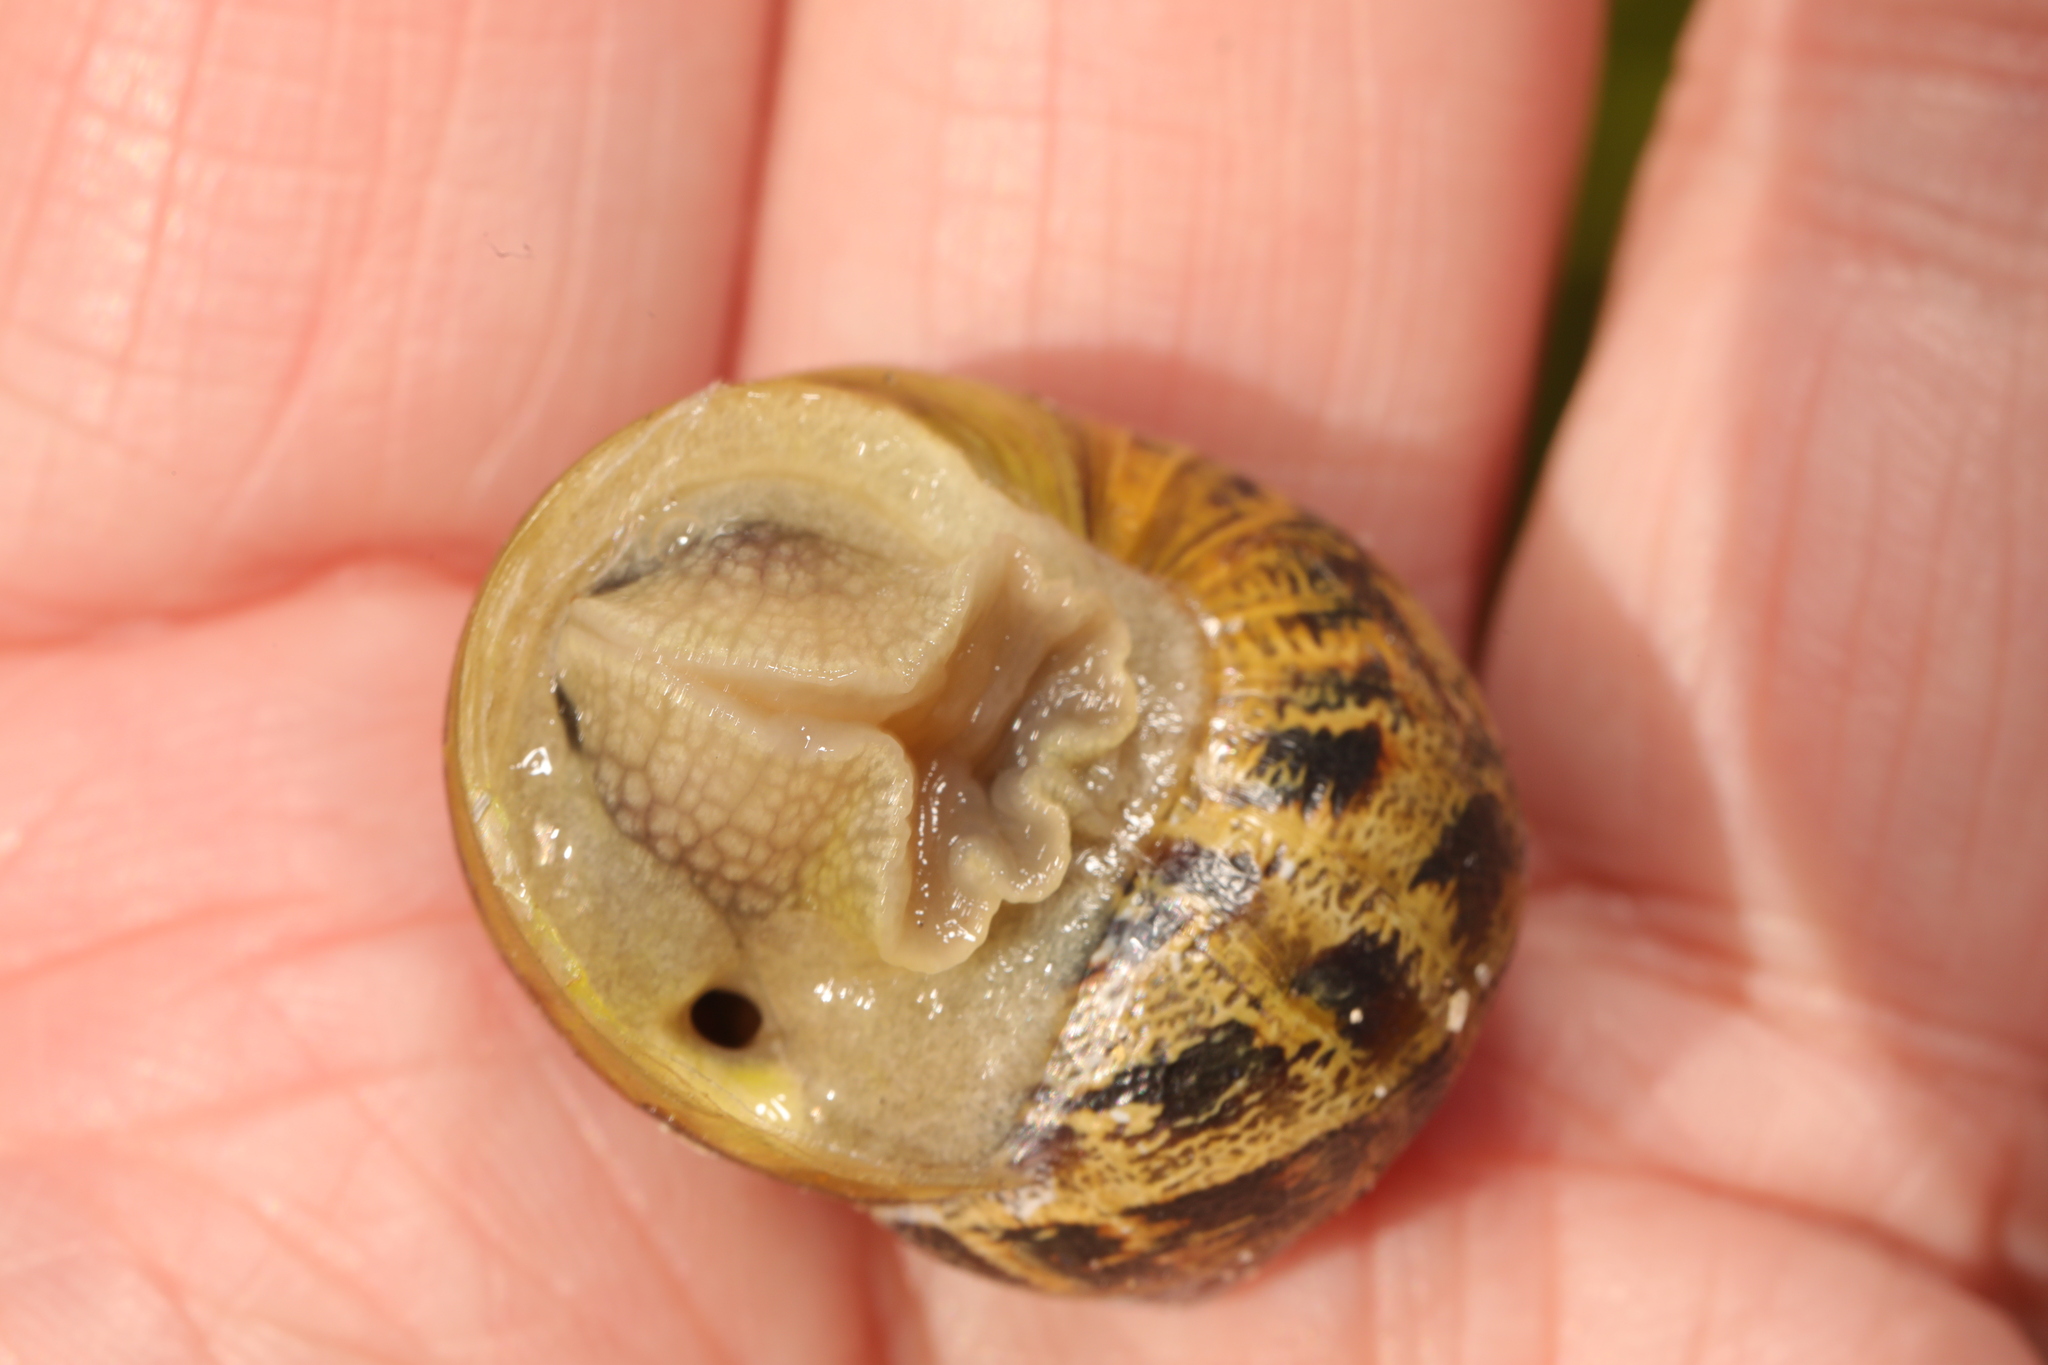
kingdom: Animalia
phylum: Mollusca
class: Gastropoda
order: Stylommatophora
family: Helicidae
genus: Cornu
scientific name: Cornu aspersum
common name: Brown garden snail
